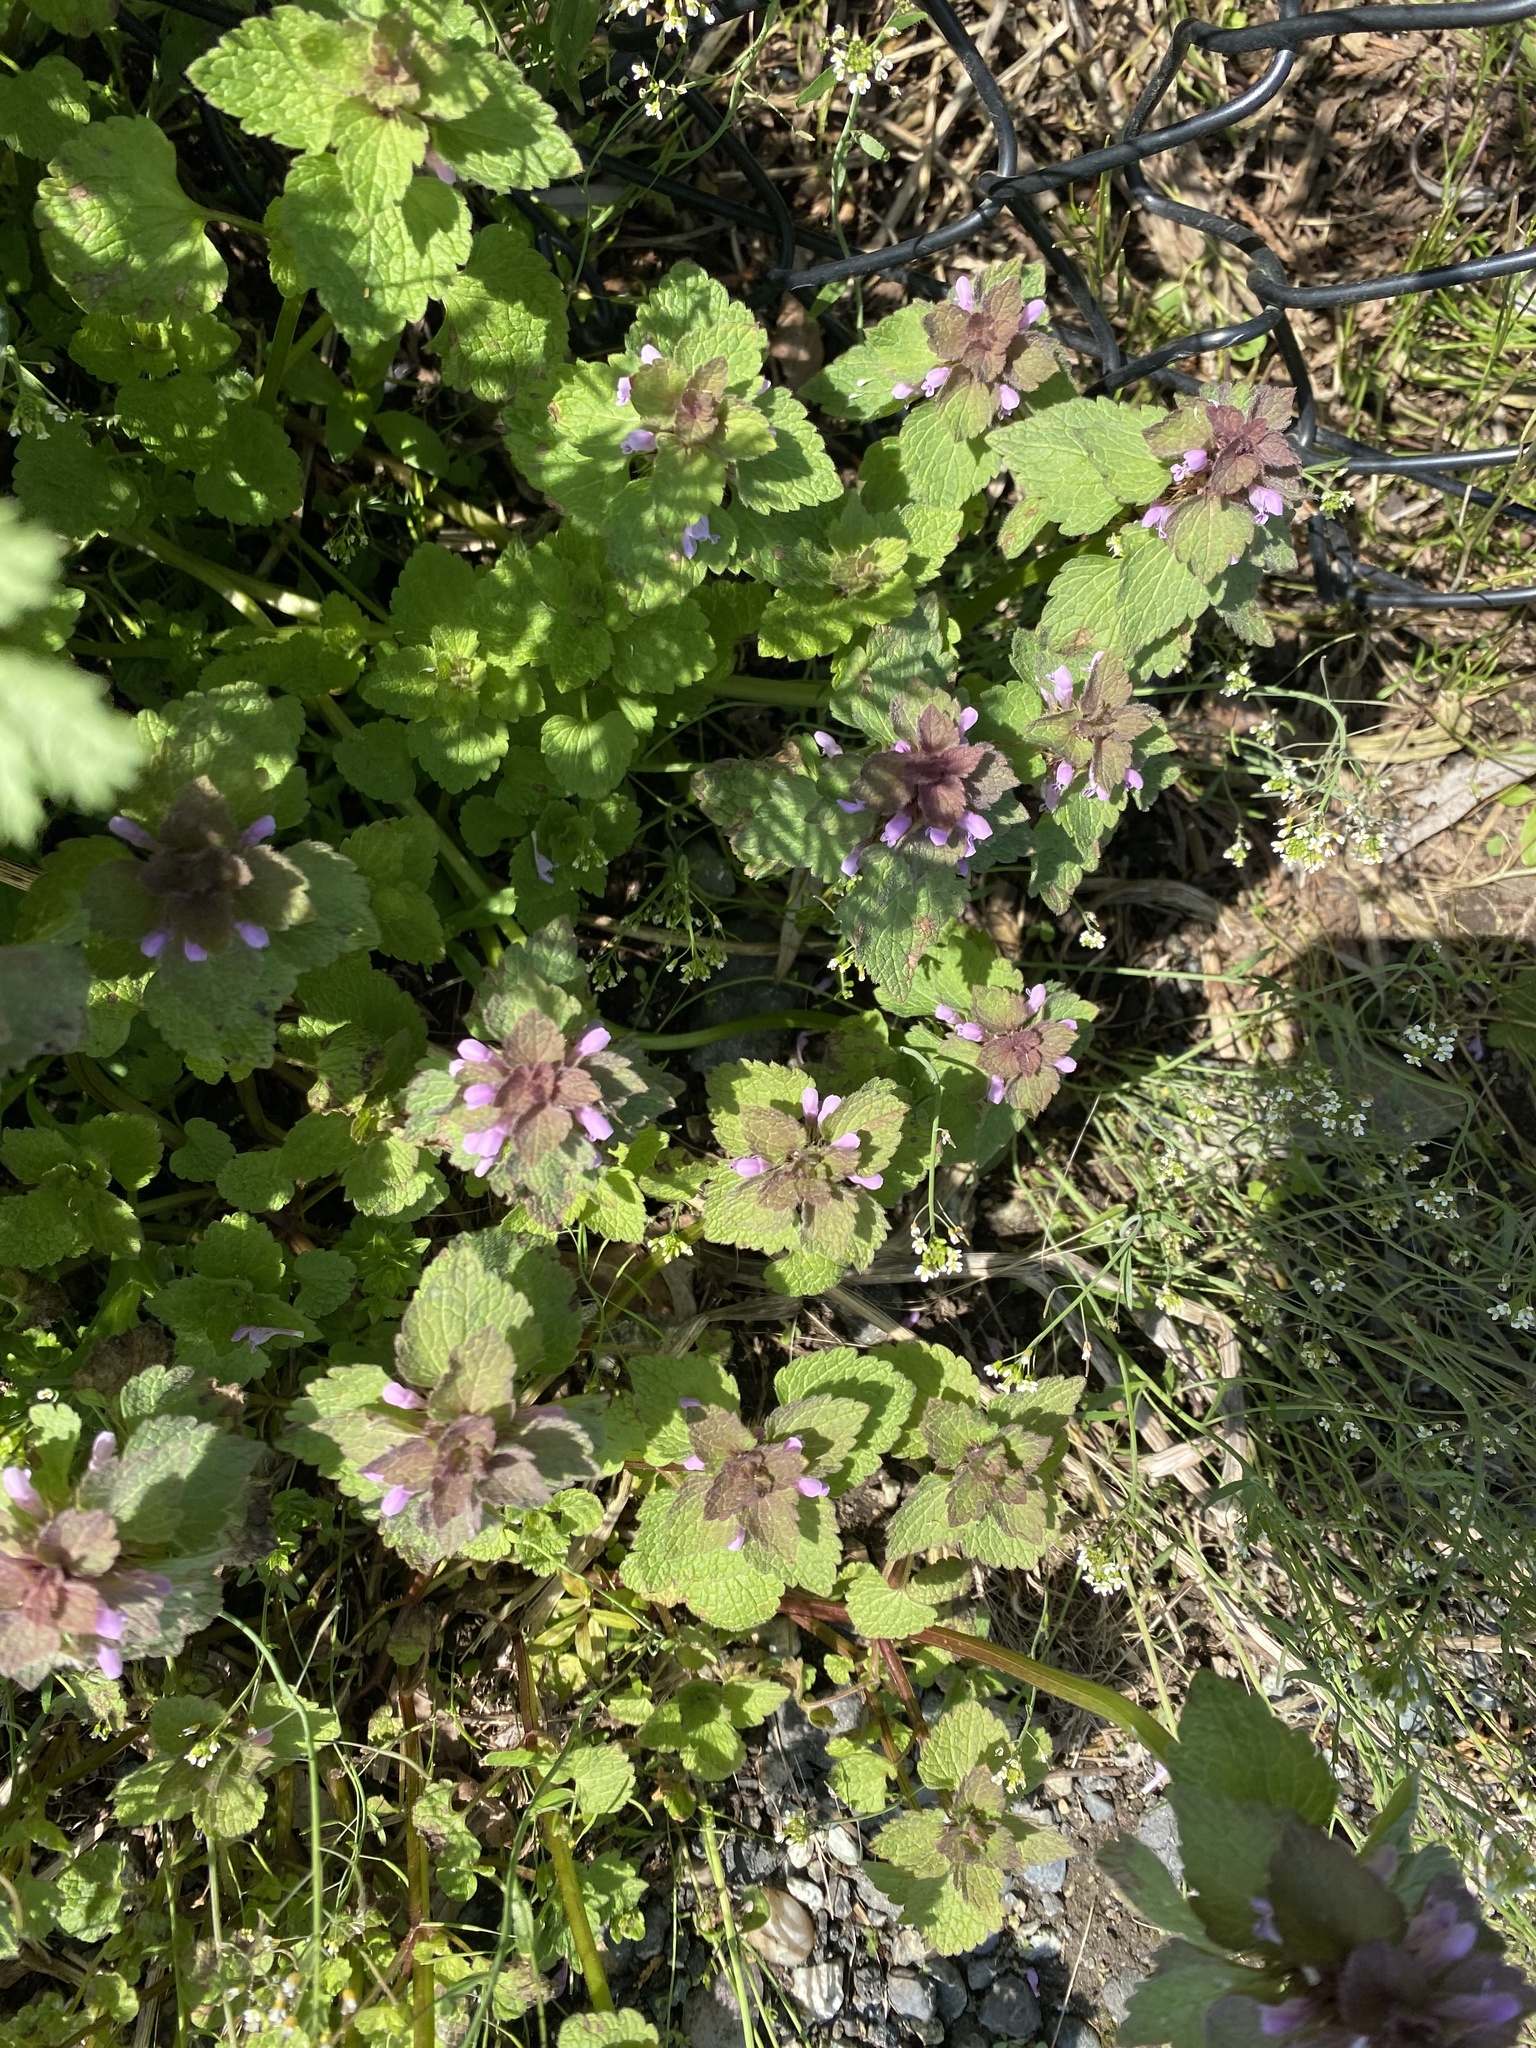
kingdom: Plantae
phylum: Tracheophyta
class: Magnoliopsida
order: Lamiales
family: Lamiaceae
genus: Lamium
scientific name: Lamium purpureum
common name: Red dead-nettle
